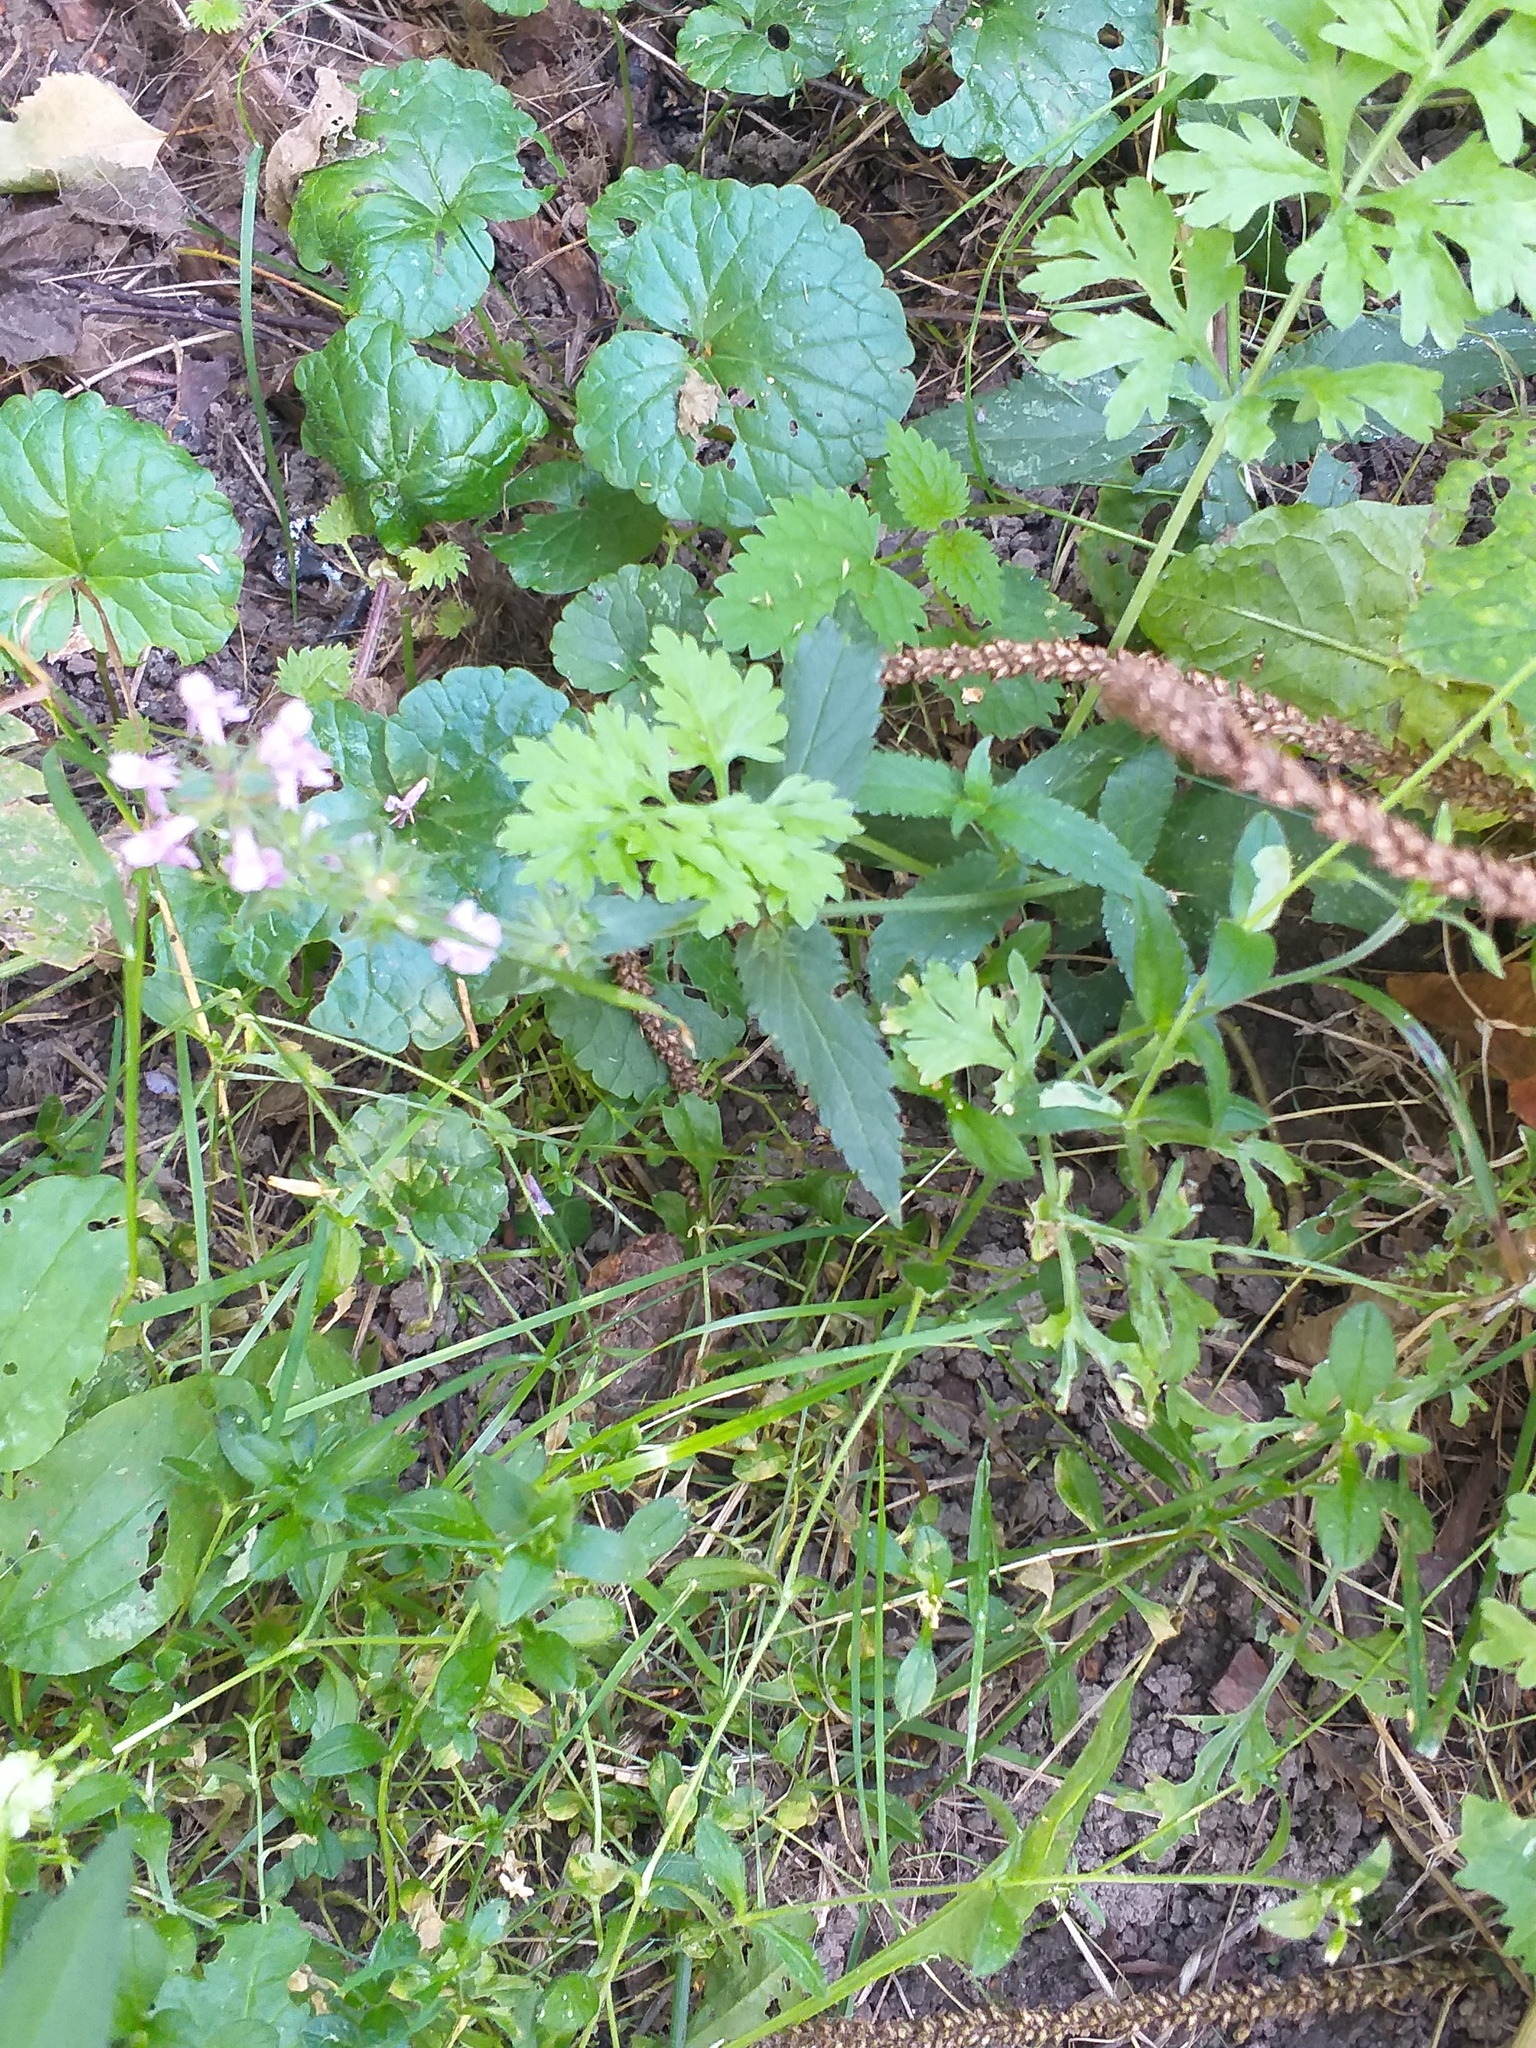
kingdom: Plantae
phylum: Tracheophyta
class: Magnoliopsida
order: Lamiales
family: Lamiaceae
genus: Stachys
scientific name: Stachys palustris
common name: Marsh woundwort
